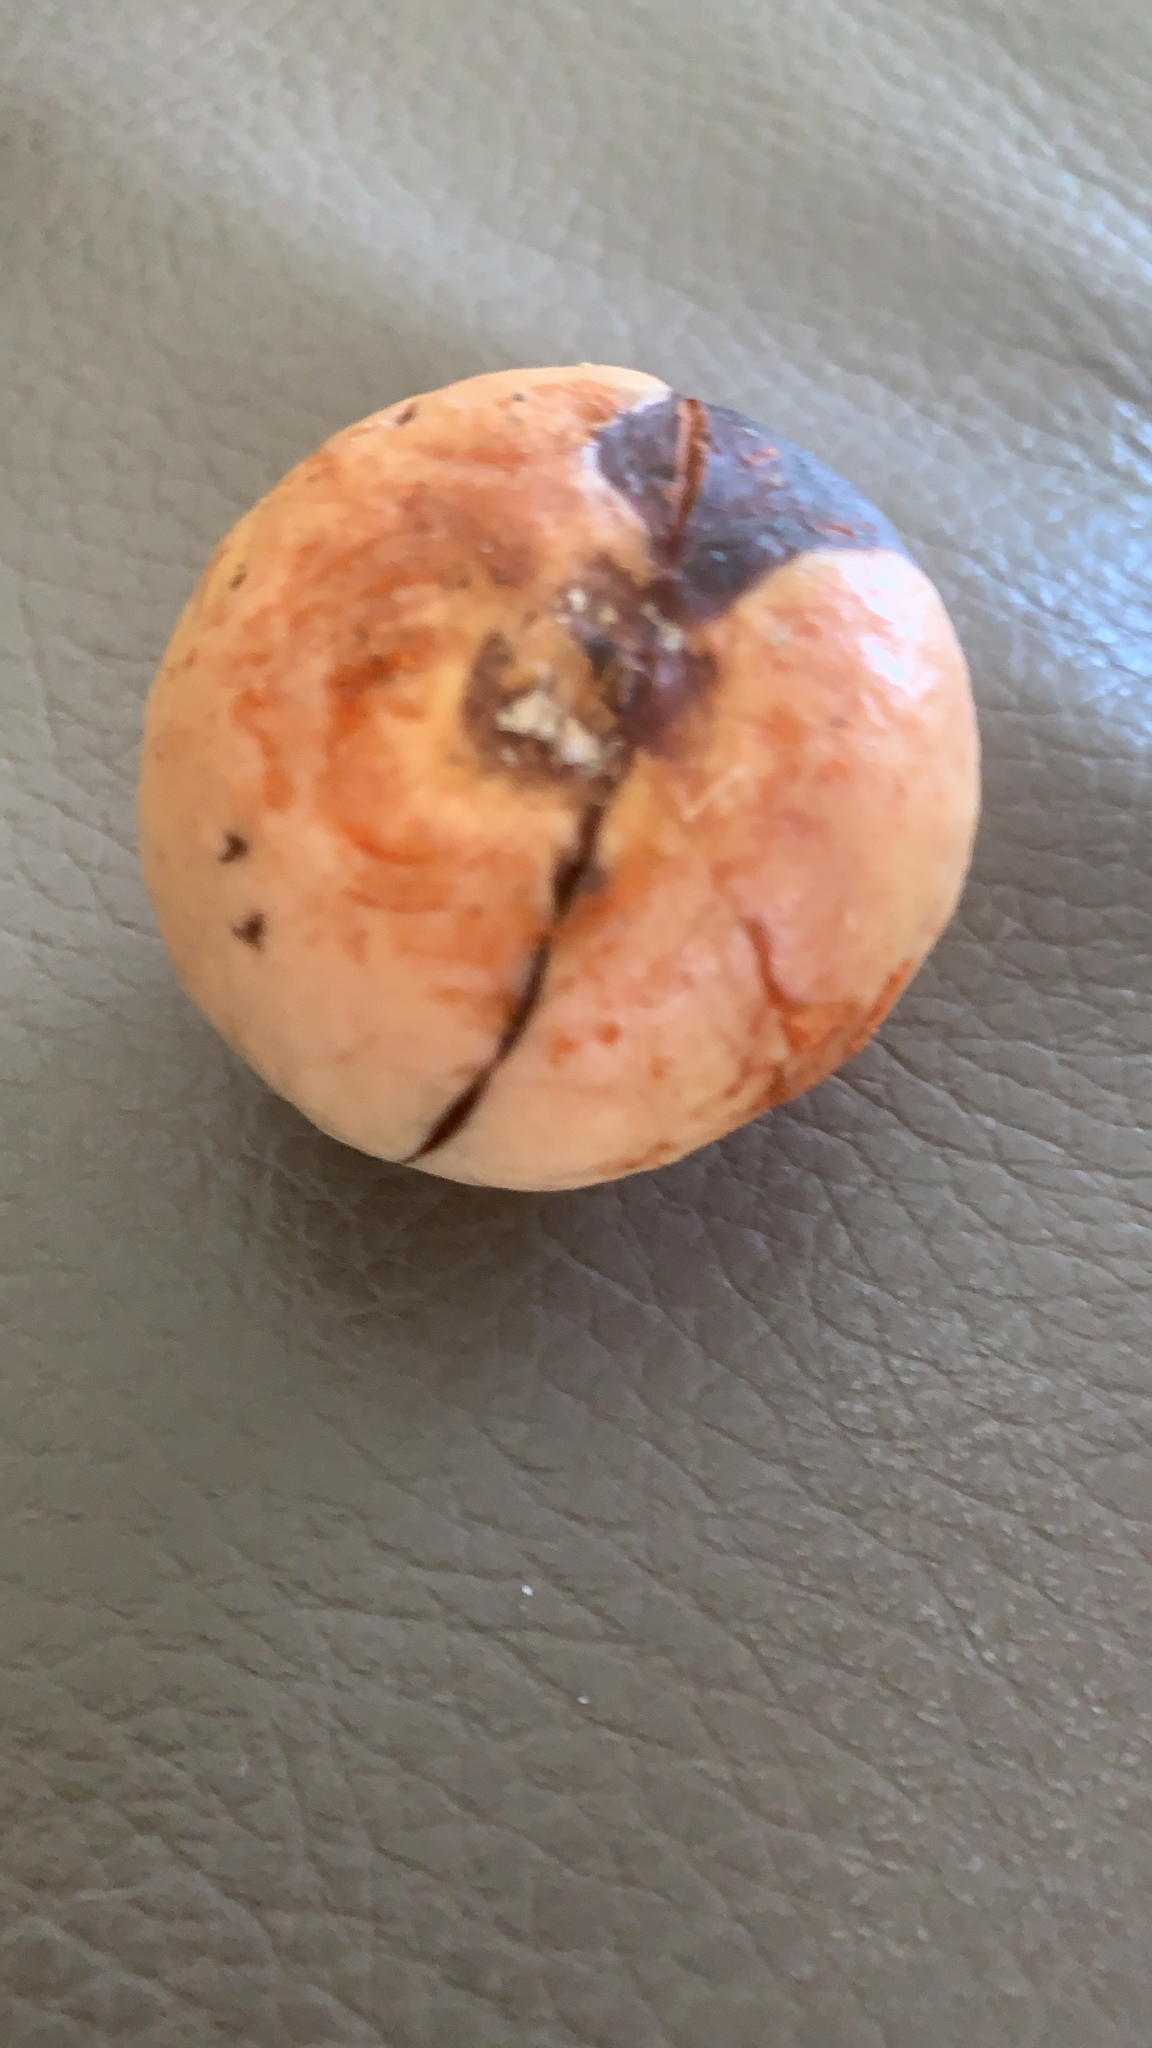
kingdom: Plantae
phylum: Tracheophyta
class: Magnoliopsida
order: Ericales
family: Ebenaceae
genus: Diospyros
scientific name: Diospyros virginiana
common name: Persimmon
